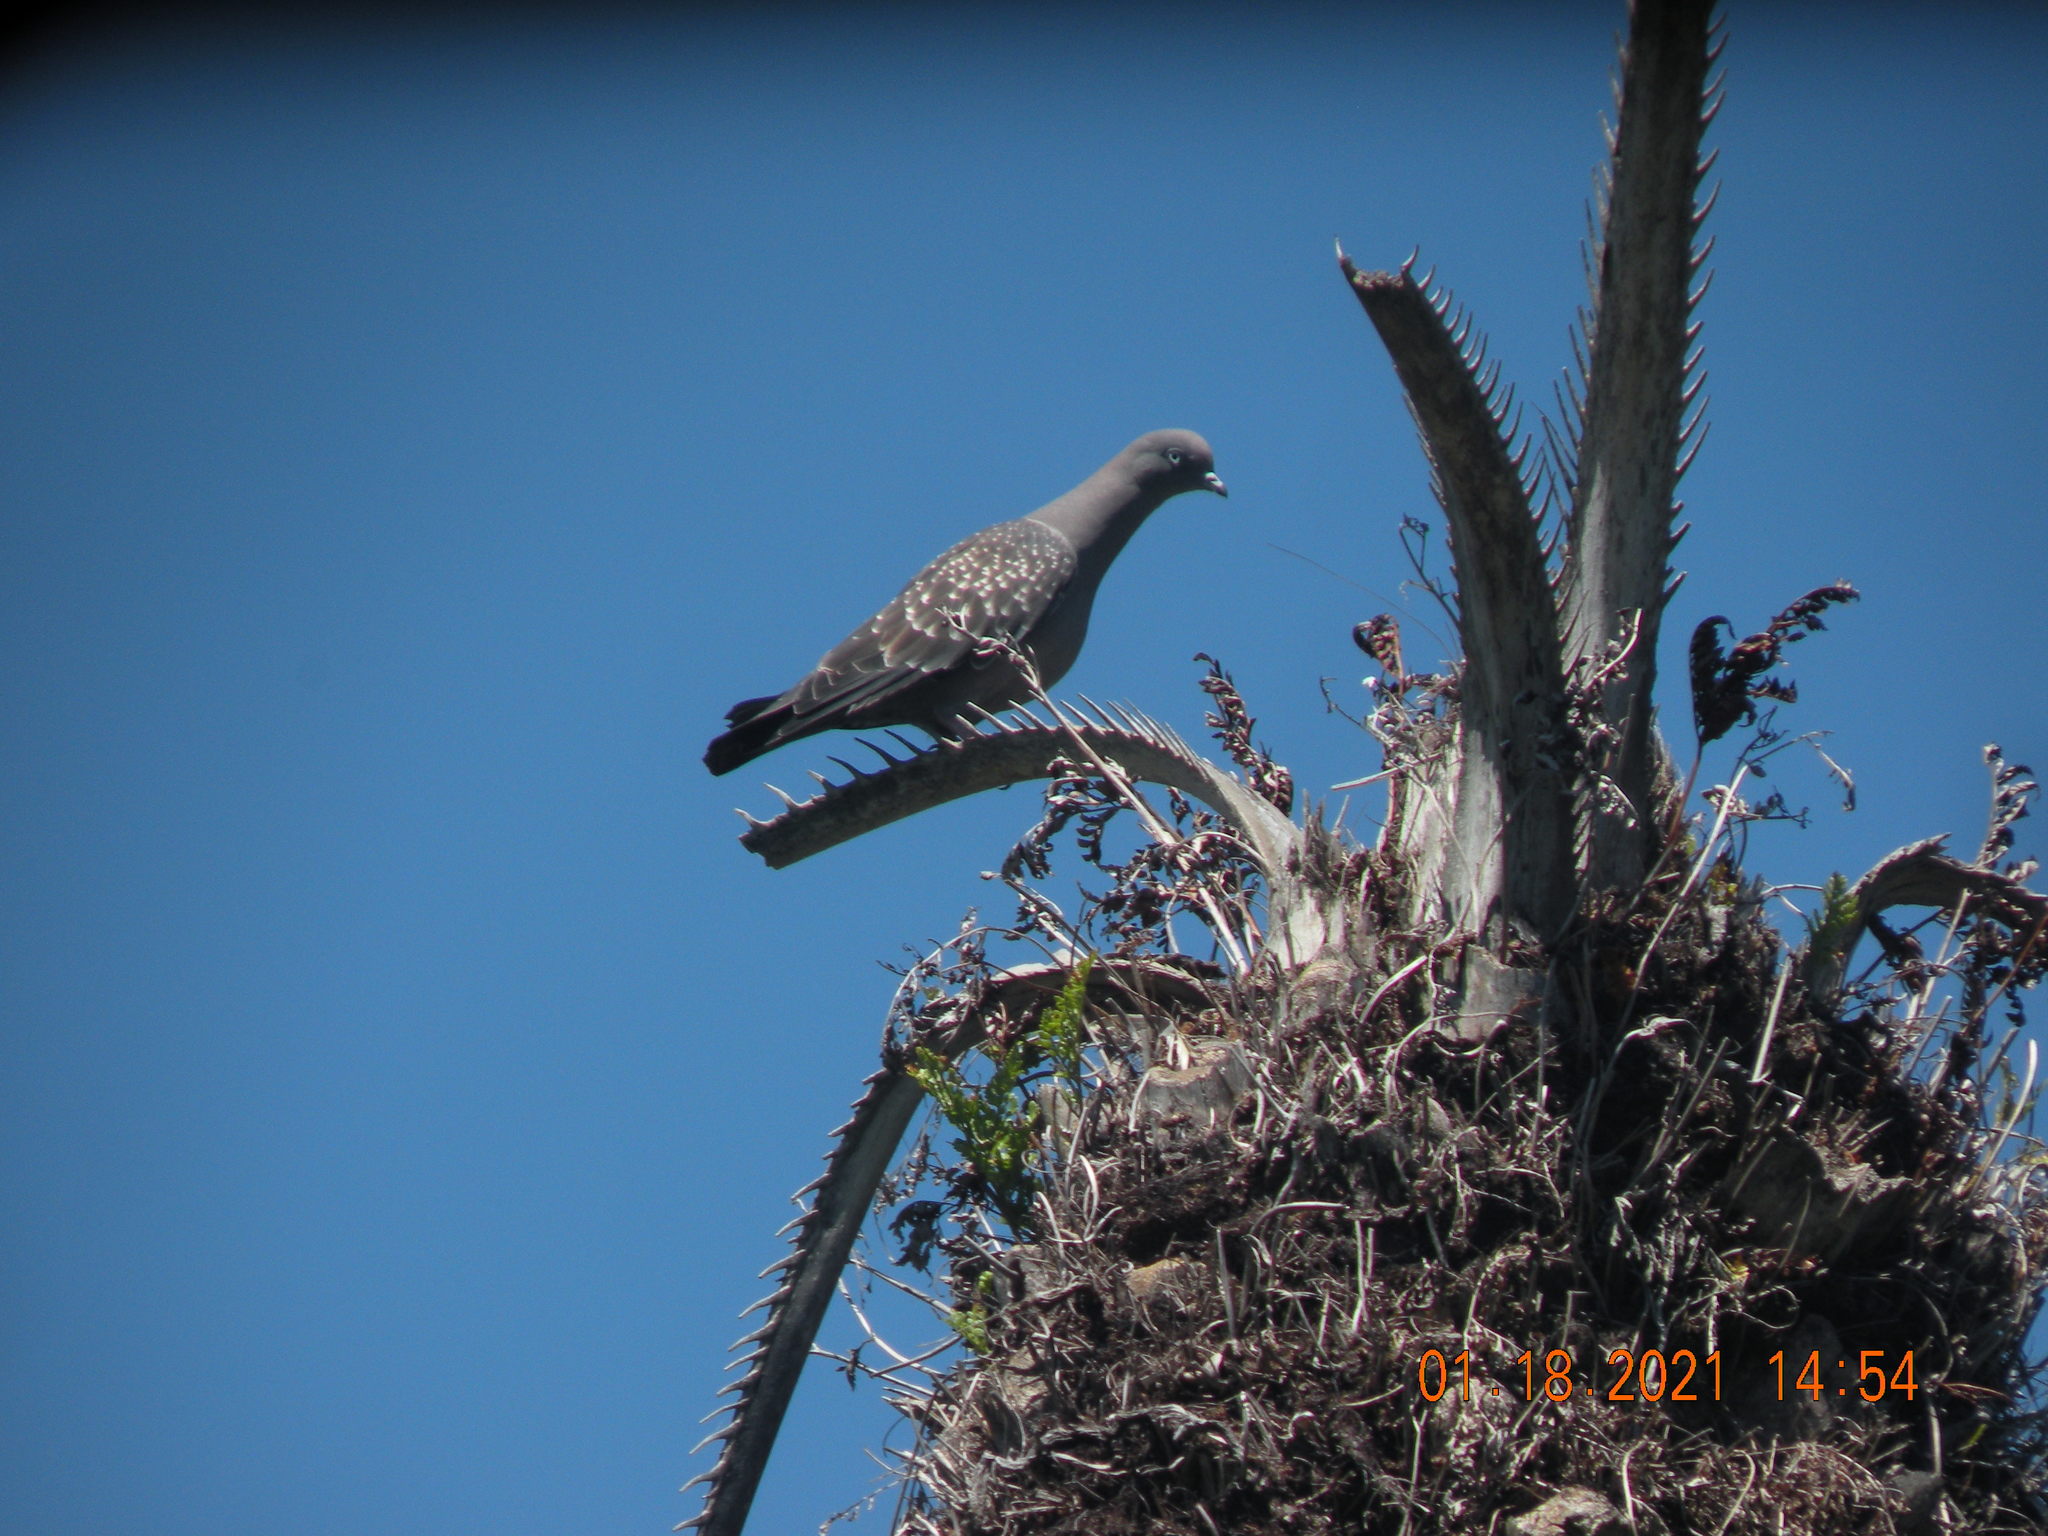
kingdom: Animalia
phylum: Chordata
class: Aves
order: Columbiformes
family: Columbidae
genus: Patagioenas
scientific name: Patagioenas maculosa
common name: Spot-winged pigeon
